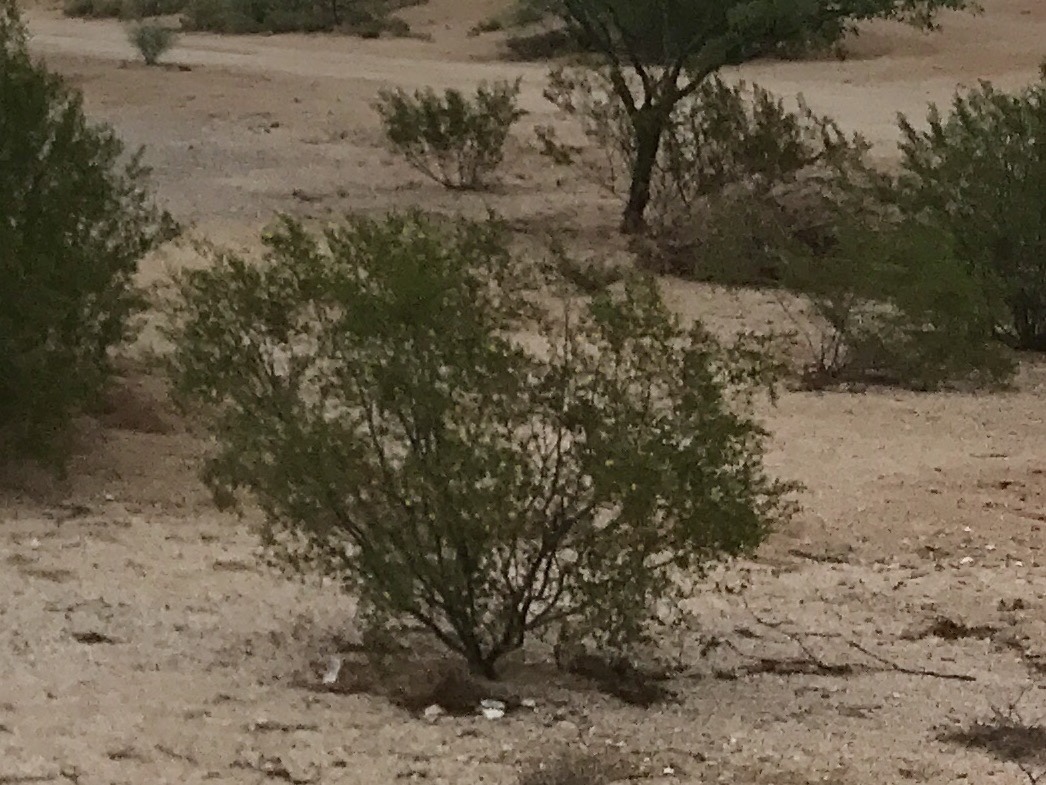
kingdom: Plantae
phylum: Tracheophyta
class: Magnoliopsida
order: Zygophyllales
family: Zygophyllaceae
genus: Larrea
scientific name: Larrea tridentata
